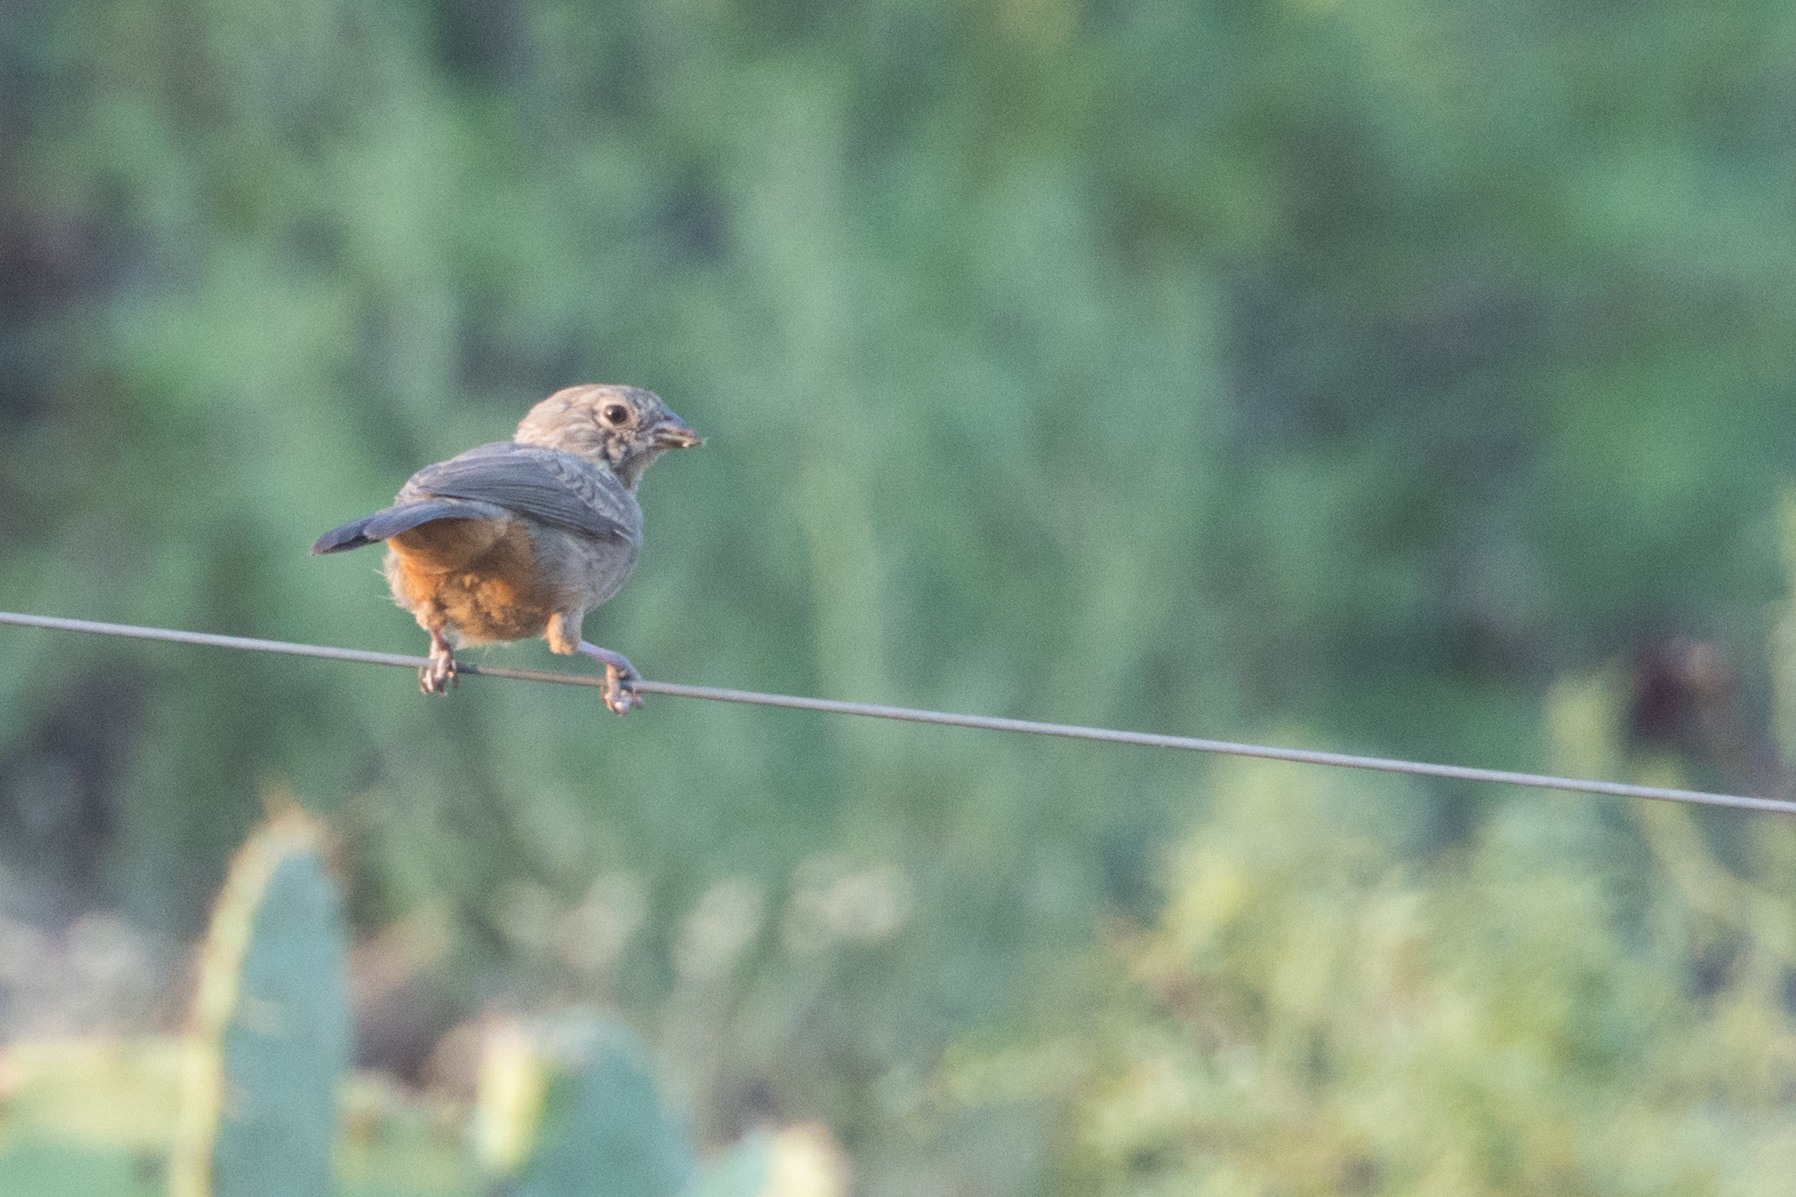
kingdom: Animalia
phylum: Chordata
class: Aves
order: Passeriformes
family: Passerellidae
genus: Melozone
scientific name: Melozone fusca
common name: Canyon towhee
